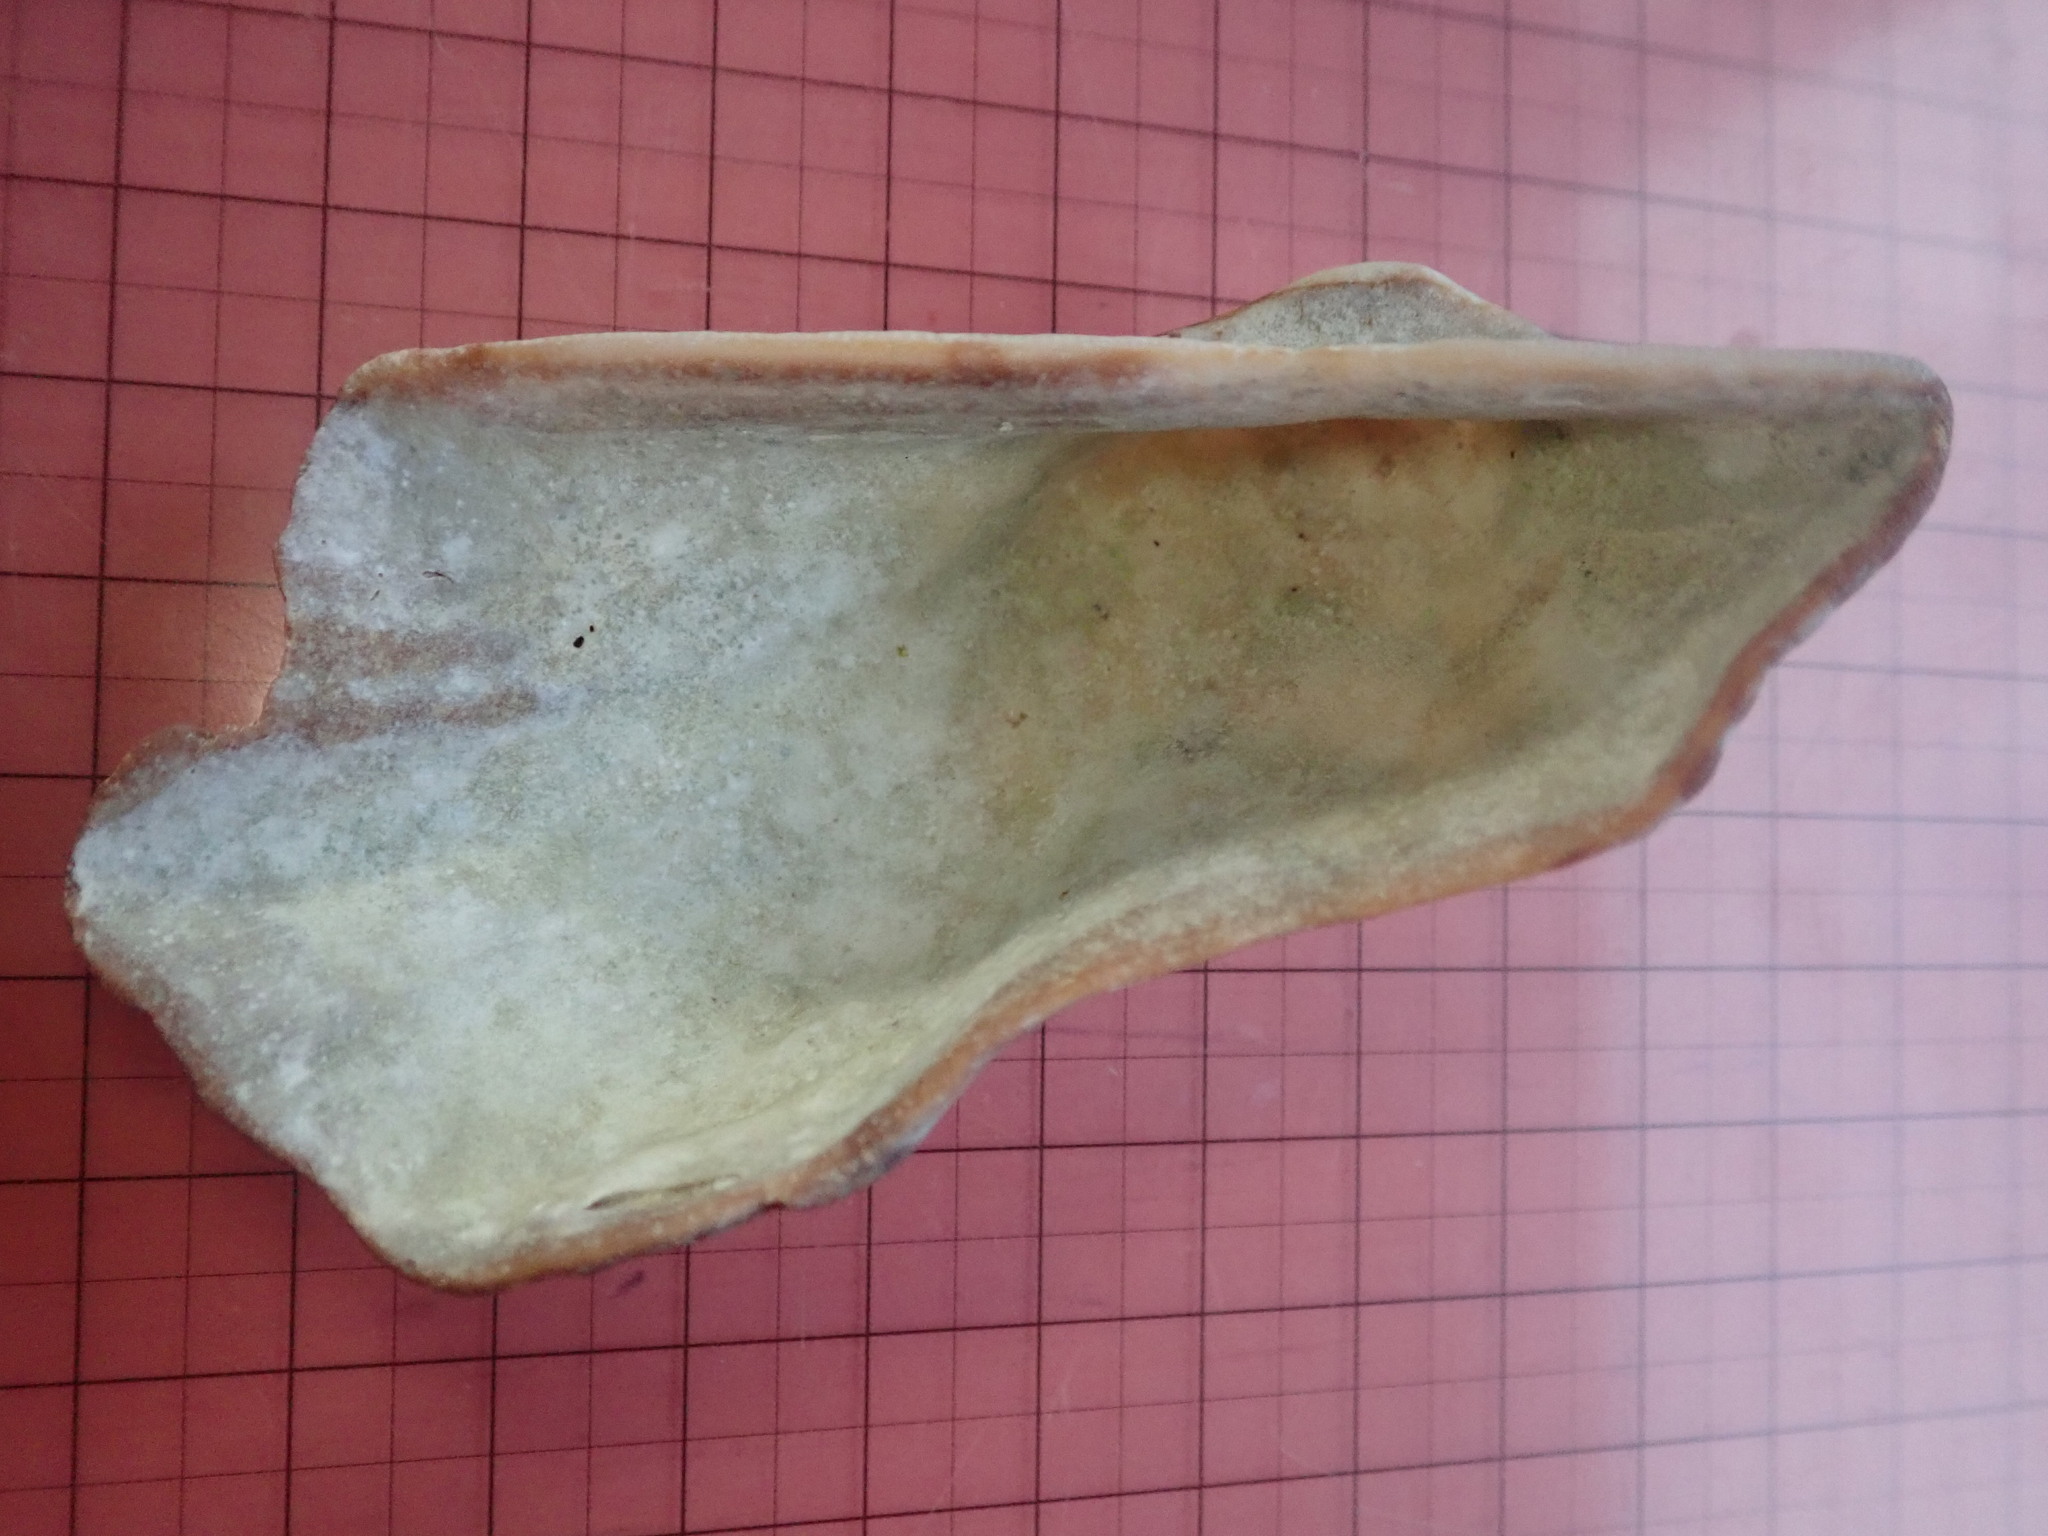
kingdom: Animalia
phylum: Mollusca
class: Bivalvia
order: Arcida
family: Arcidae
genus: Arca
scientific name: Arca pacifica
